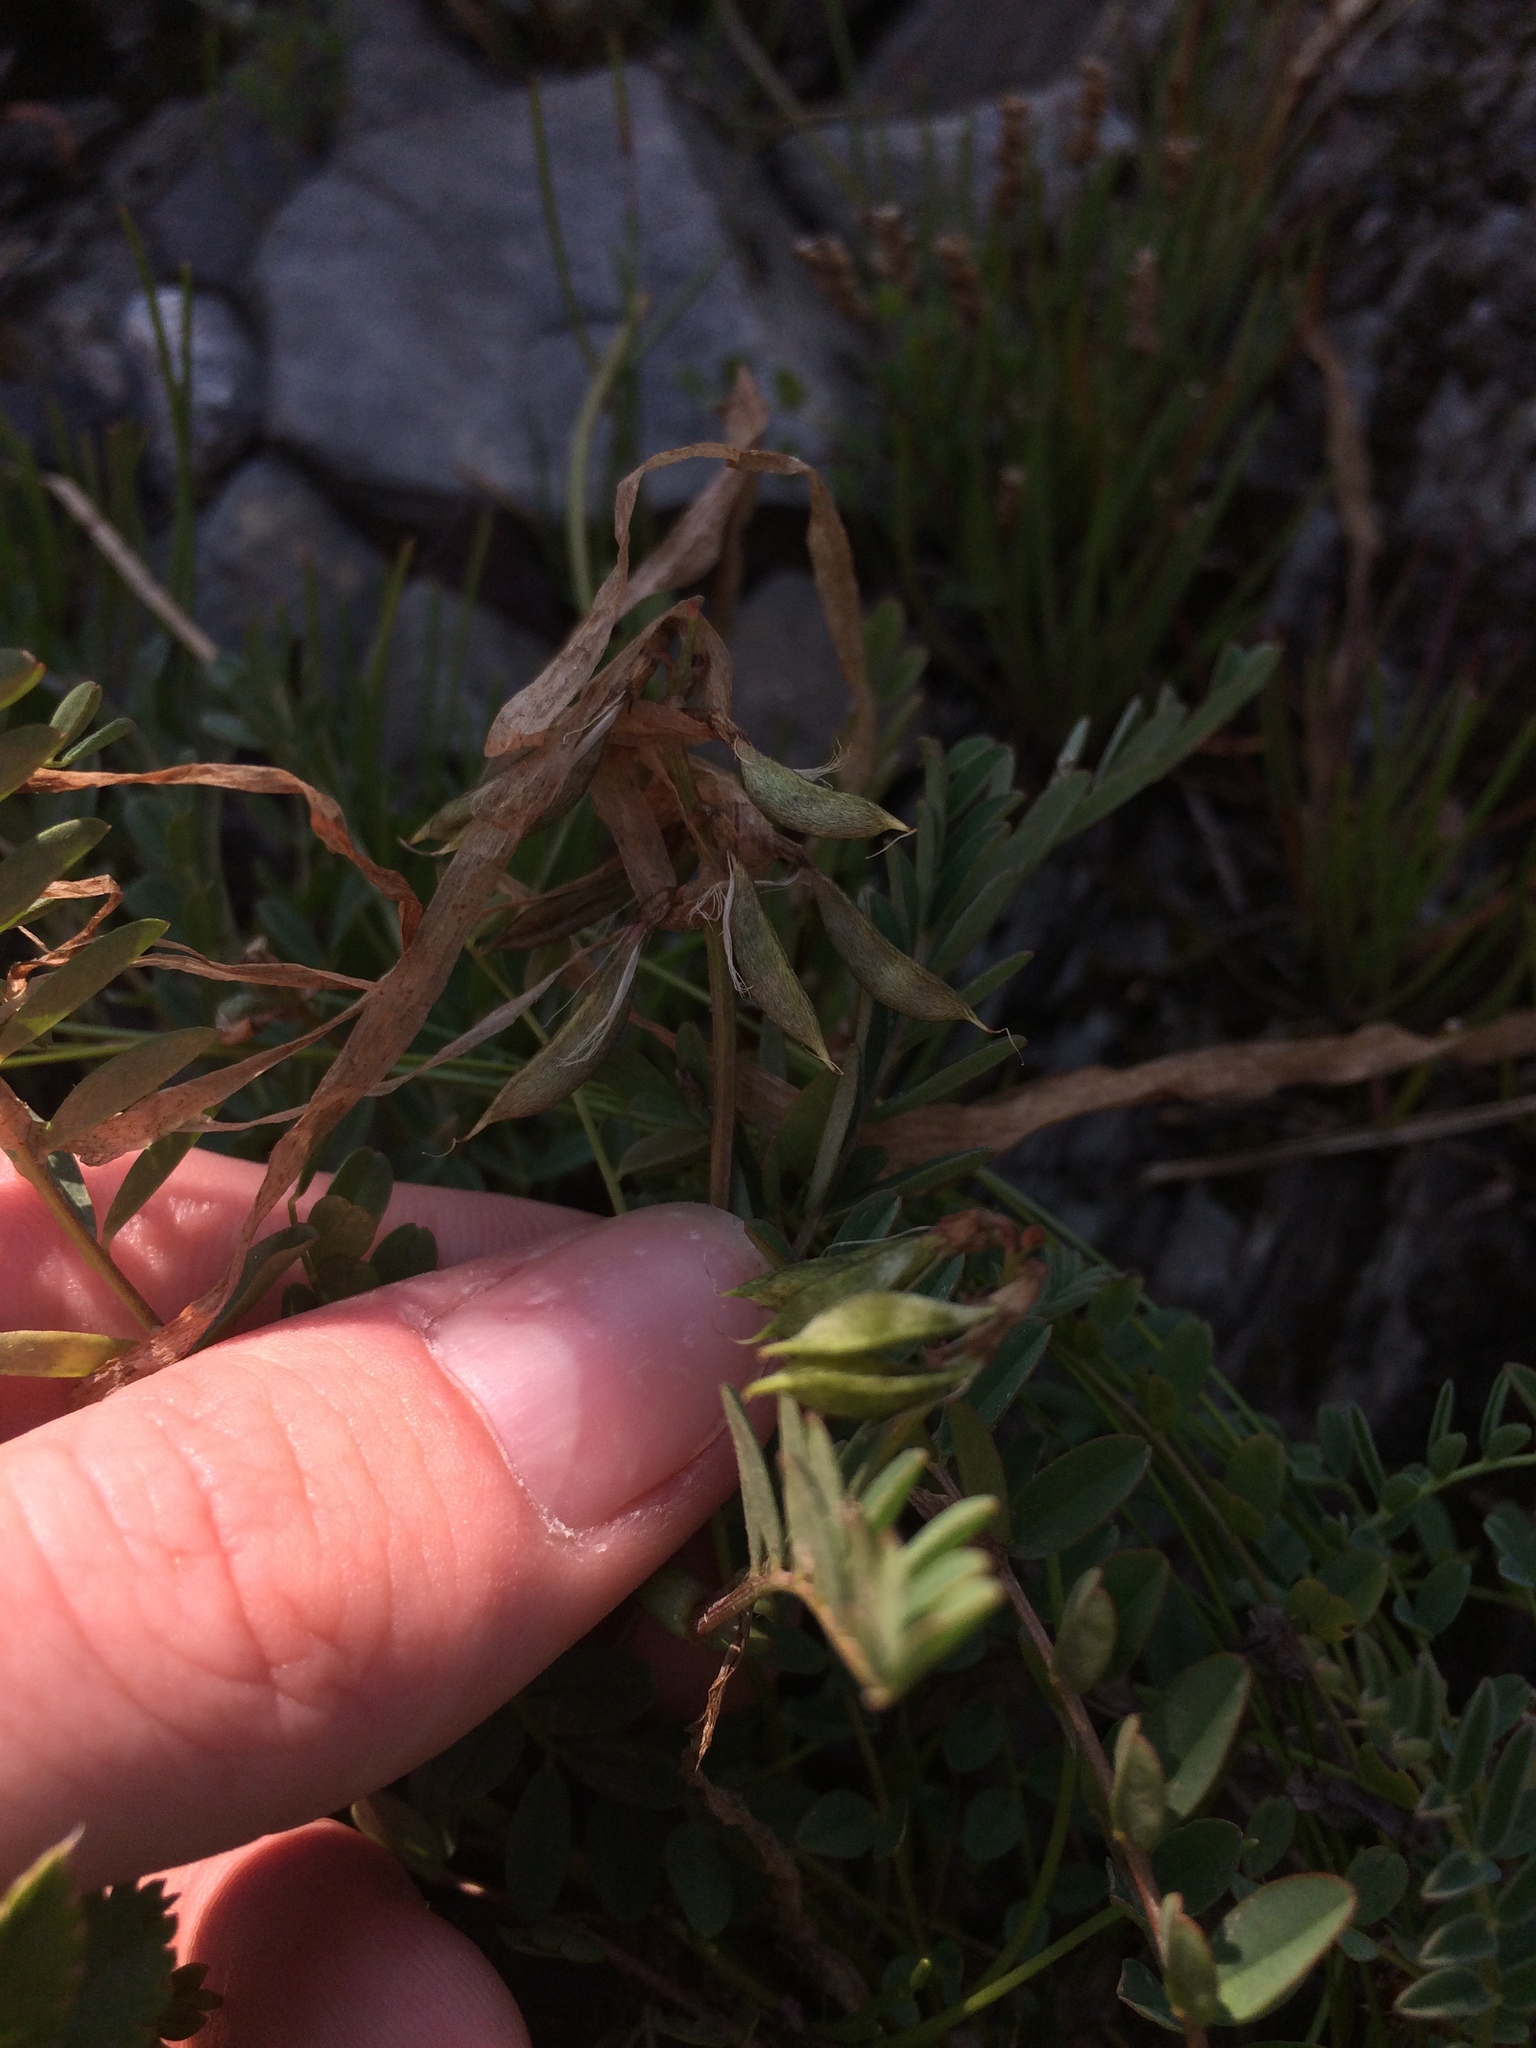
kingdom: Plantae
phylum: Tracheophyta
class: Magnoliopsida
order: Fabales
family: Fabaceae
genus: Astragalus
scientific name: Astragalus alpinus
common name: Alpine milk-vetch
